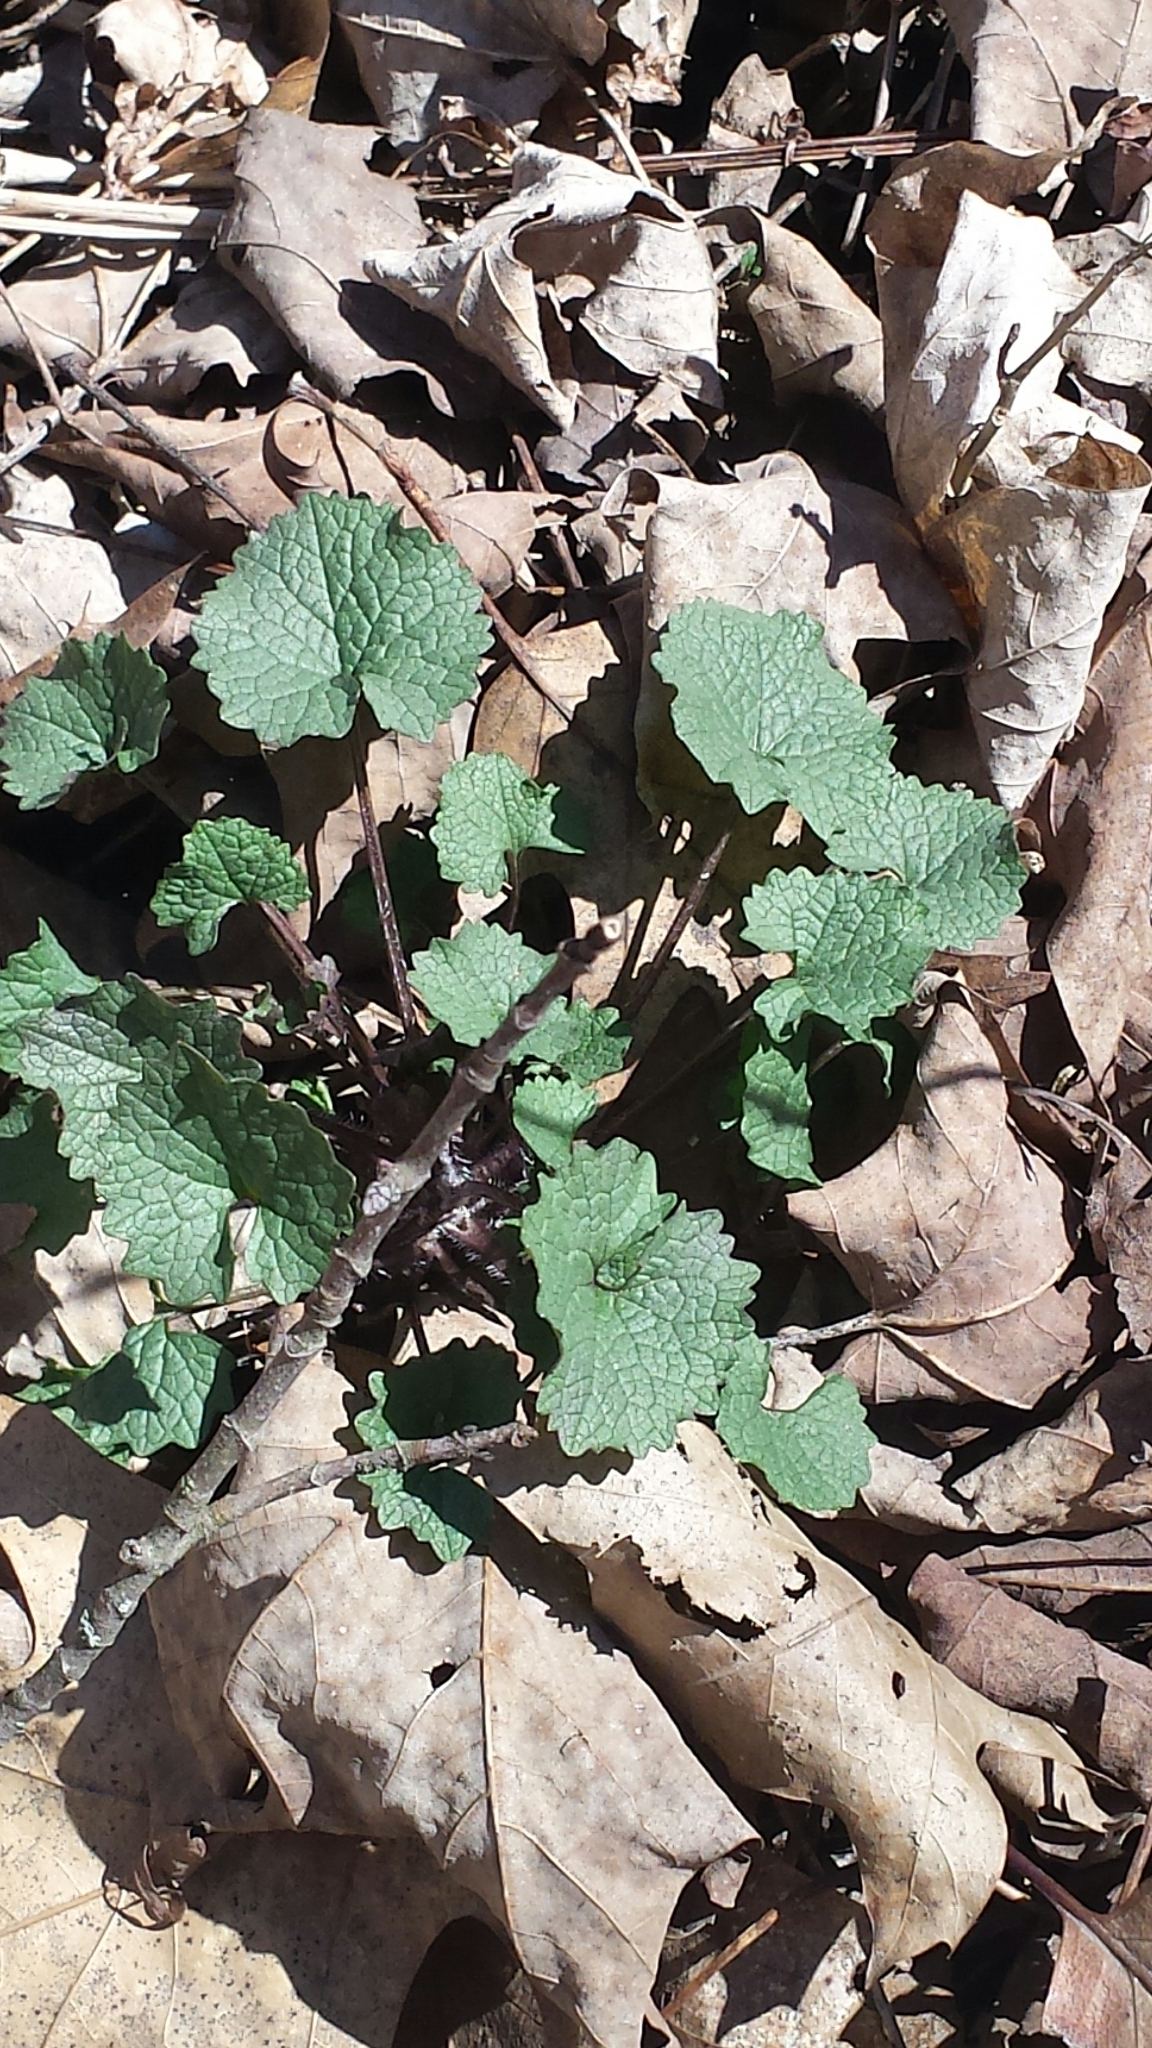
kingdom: Plantae
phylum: Tracheophyta
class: Magnoliopsida
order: Brassicales
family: Brassicaceae
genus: Alliaria
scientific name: Alliaria petiolata
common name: Garlic mustard
